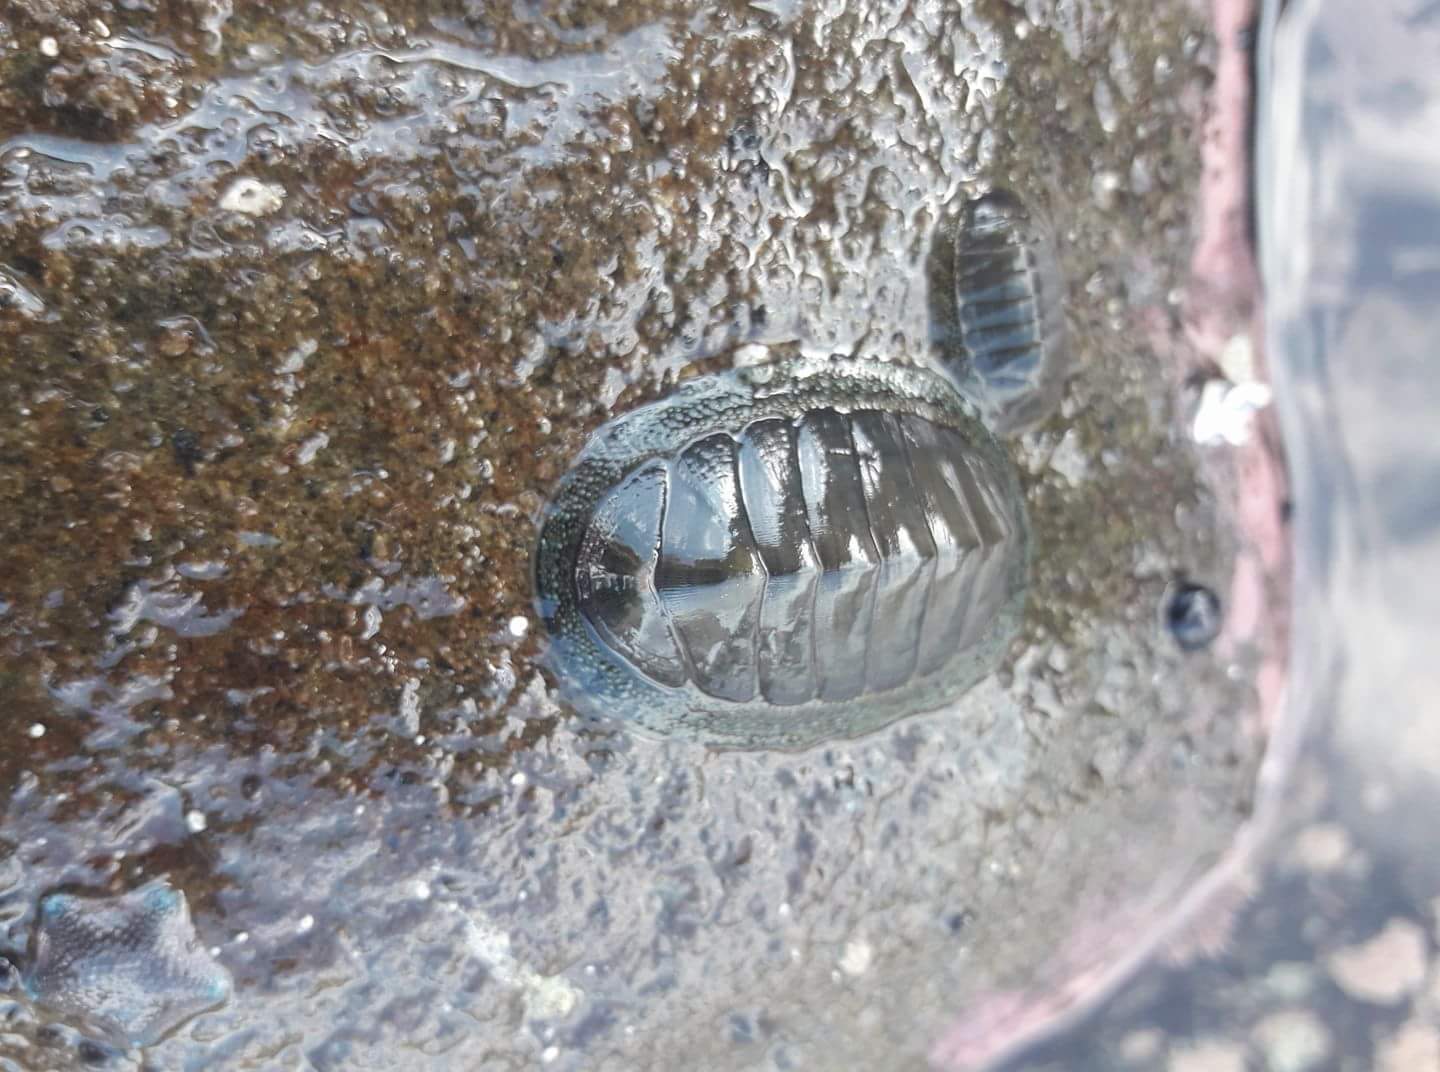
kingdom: Animalia
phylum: Mollusca
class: Polyplacophora
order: Chitonida
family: Chitonidae
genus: Chiton
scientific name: Chiton glaucus
